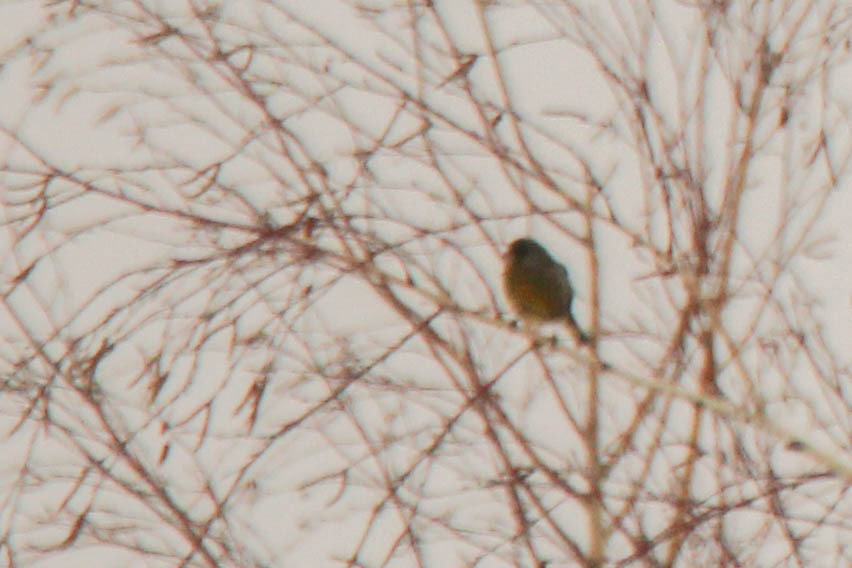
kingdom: Plantae
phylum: Tracheophyta
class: Liliopsida
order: Poales
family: Poaceae
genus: Chloris
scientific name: Chloris chloris
